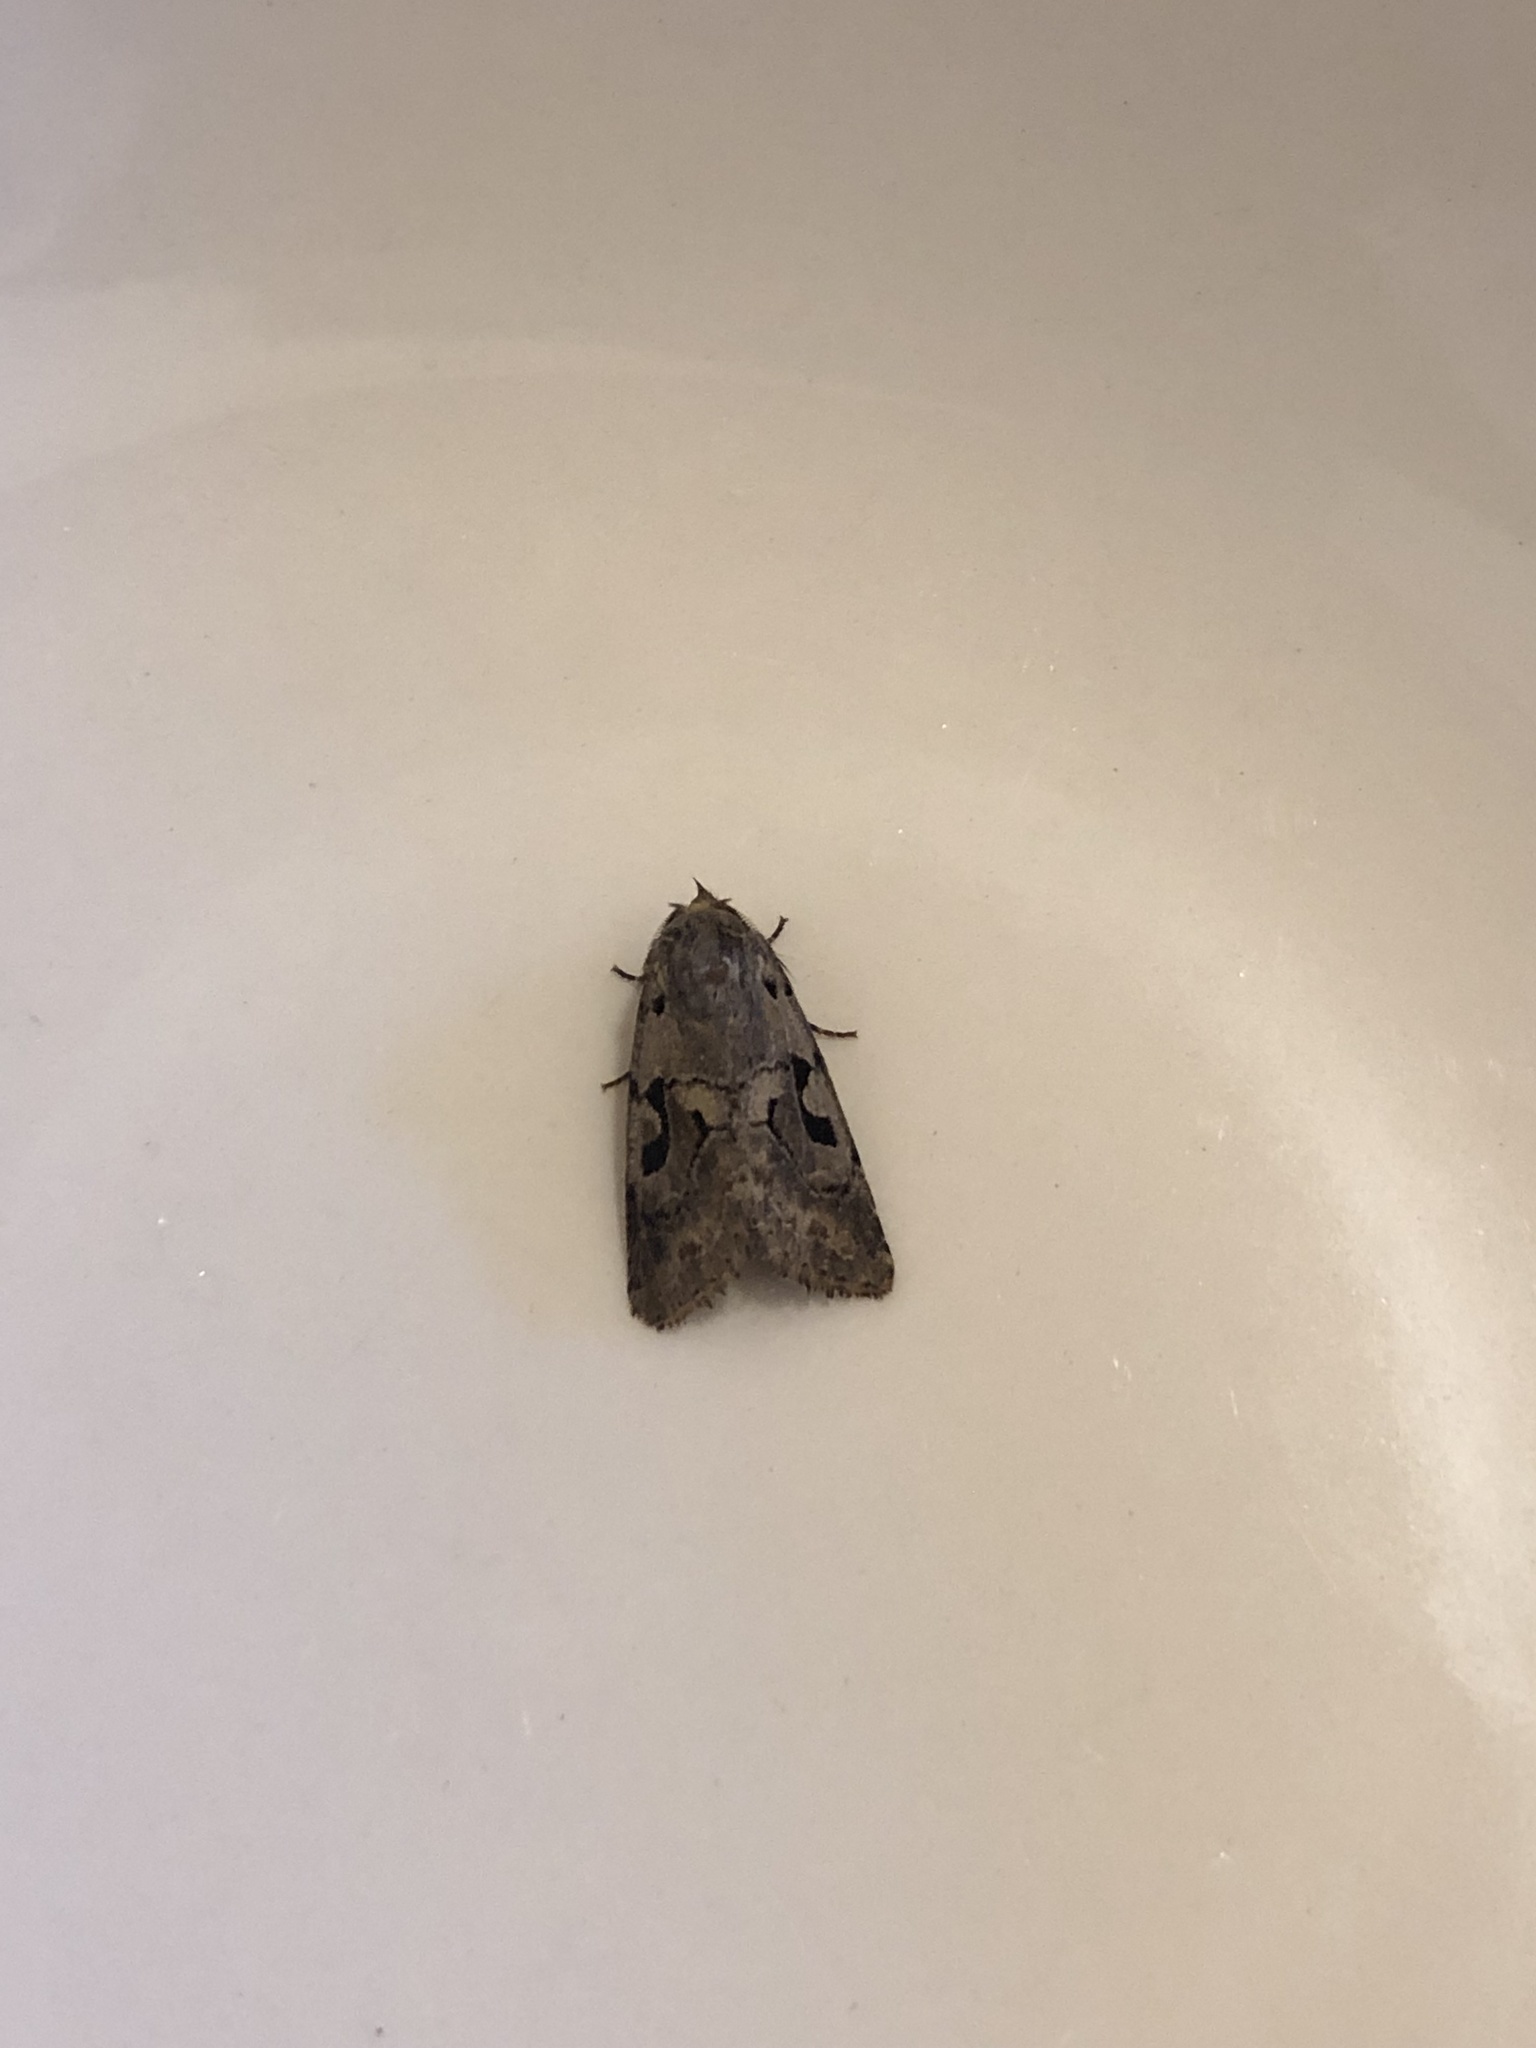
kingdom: Animalia
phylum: Arthropoda
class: Insecta
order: Lepidoptera
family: Noctuidae
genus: Orthosia
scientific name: Orthosia gothica
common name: Hebrew character
